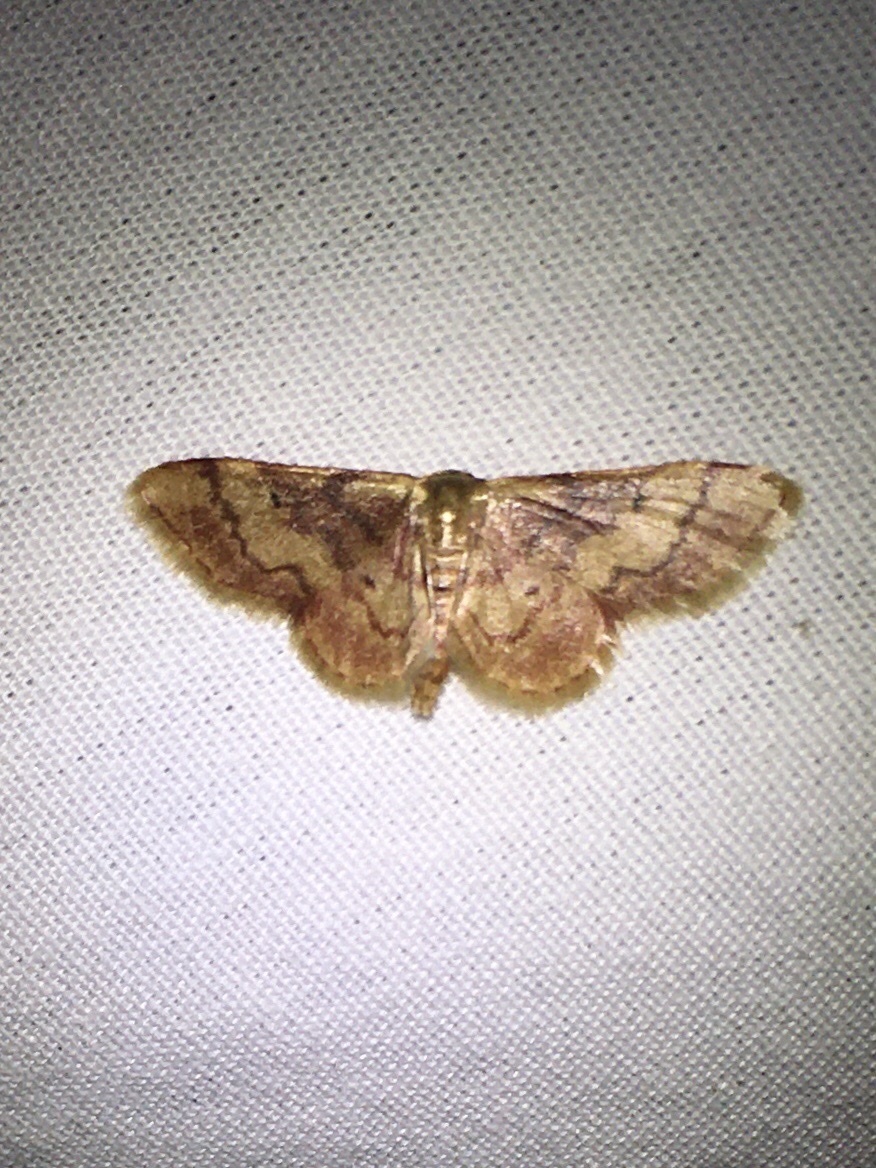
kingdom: Animalia
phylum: Arthropoda
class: Insecta
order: Lepidoptera
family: Geometridae
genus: Idaea
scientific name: Idaea demissaria
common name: Red-bordered wave
